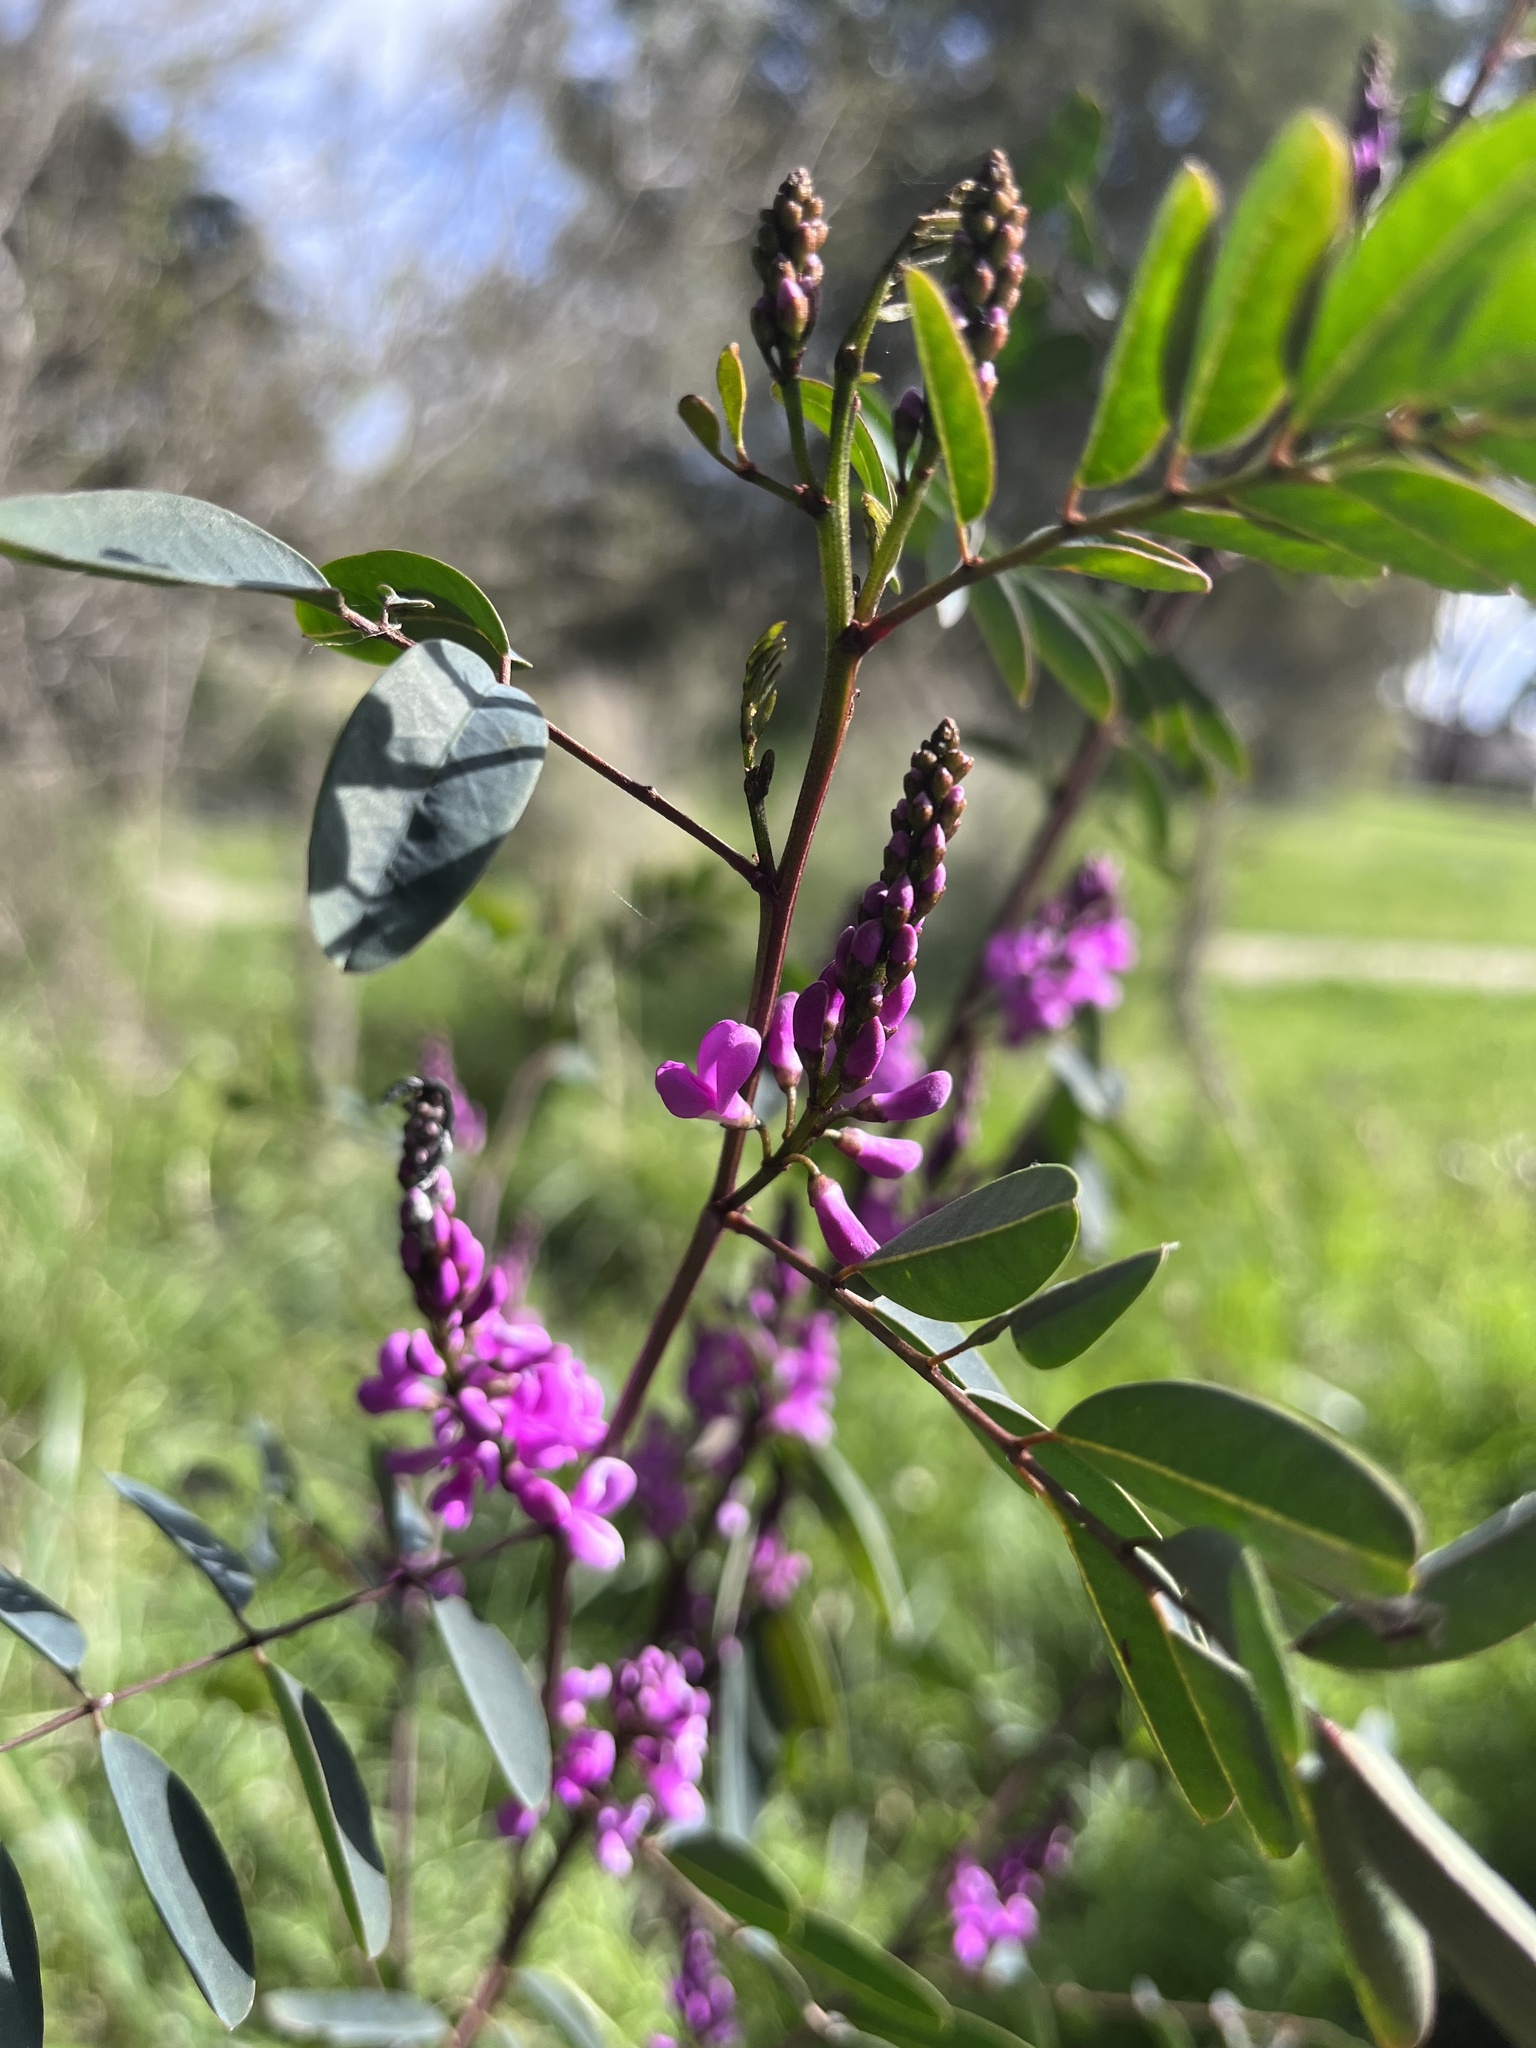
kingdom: Plantae
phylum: Tracheophyta
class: Magnoliopsida
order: Fabales
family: Fabaceae
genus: Indigofera
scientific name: Indigofera australis
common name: Australian indigo
